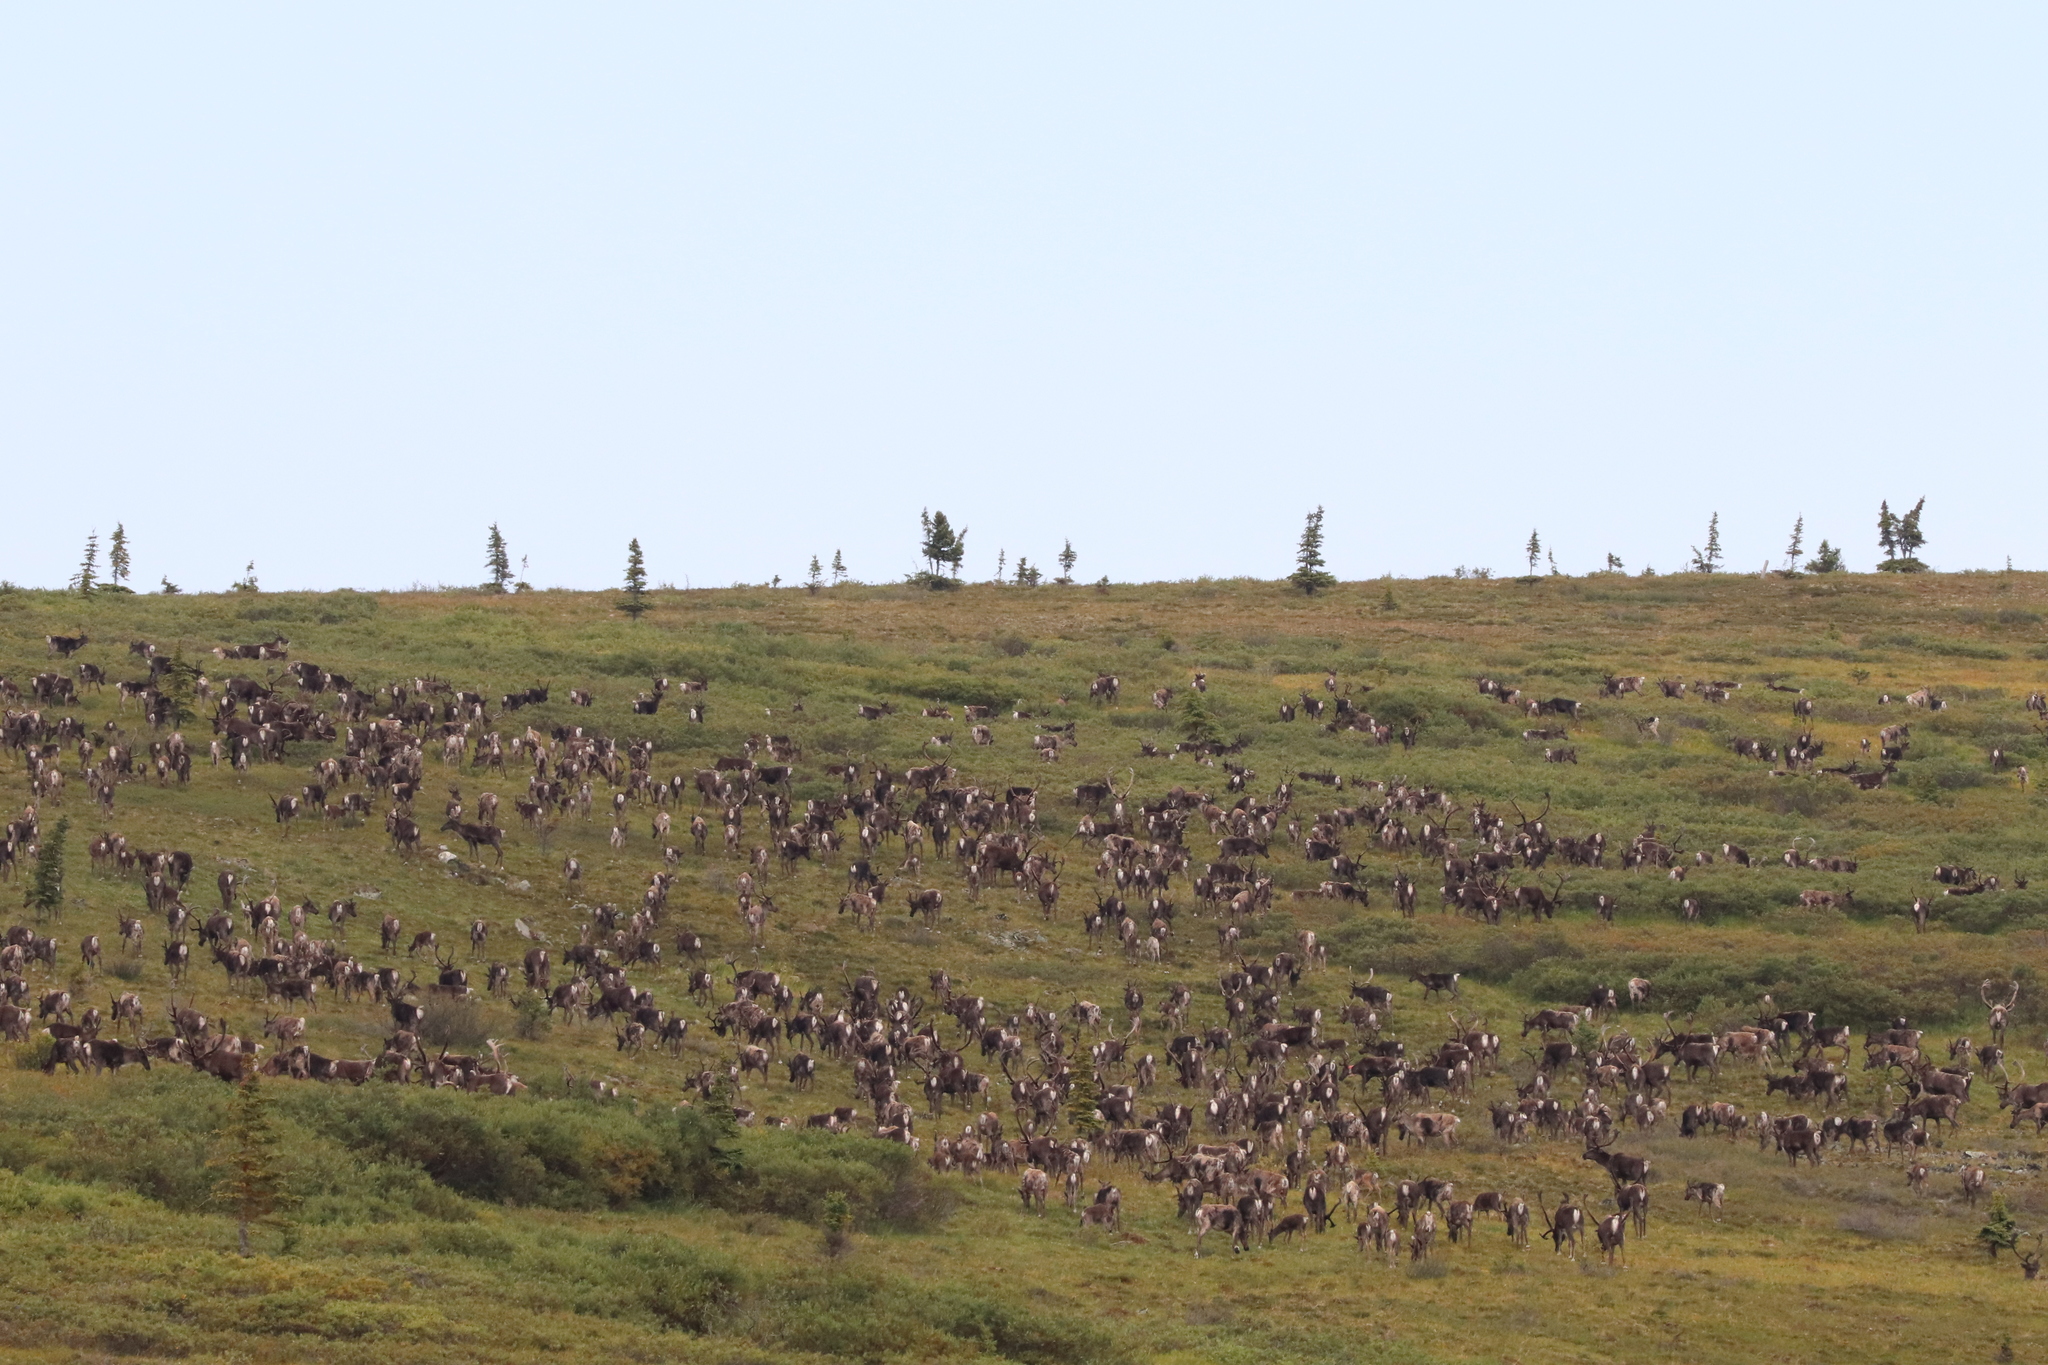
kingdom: Animalia
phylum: Chordata
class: Mammalia
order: Artiodactyla
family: Cervidae
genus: Rangifer
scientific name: Rangifer tarandus
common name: Reindeer
